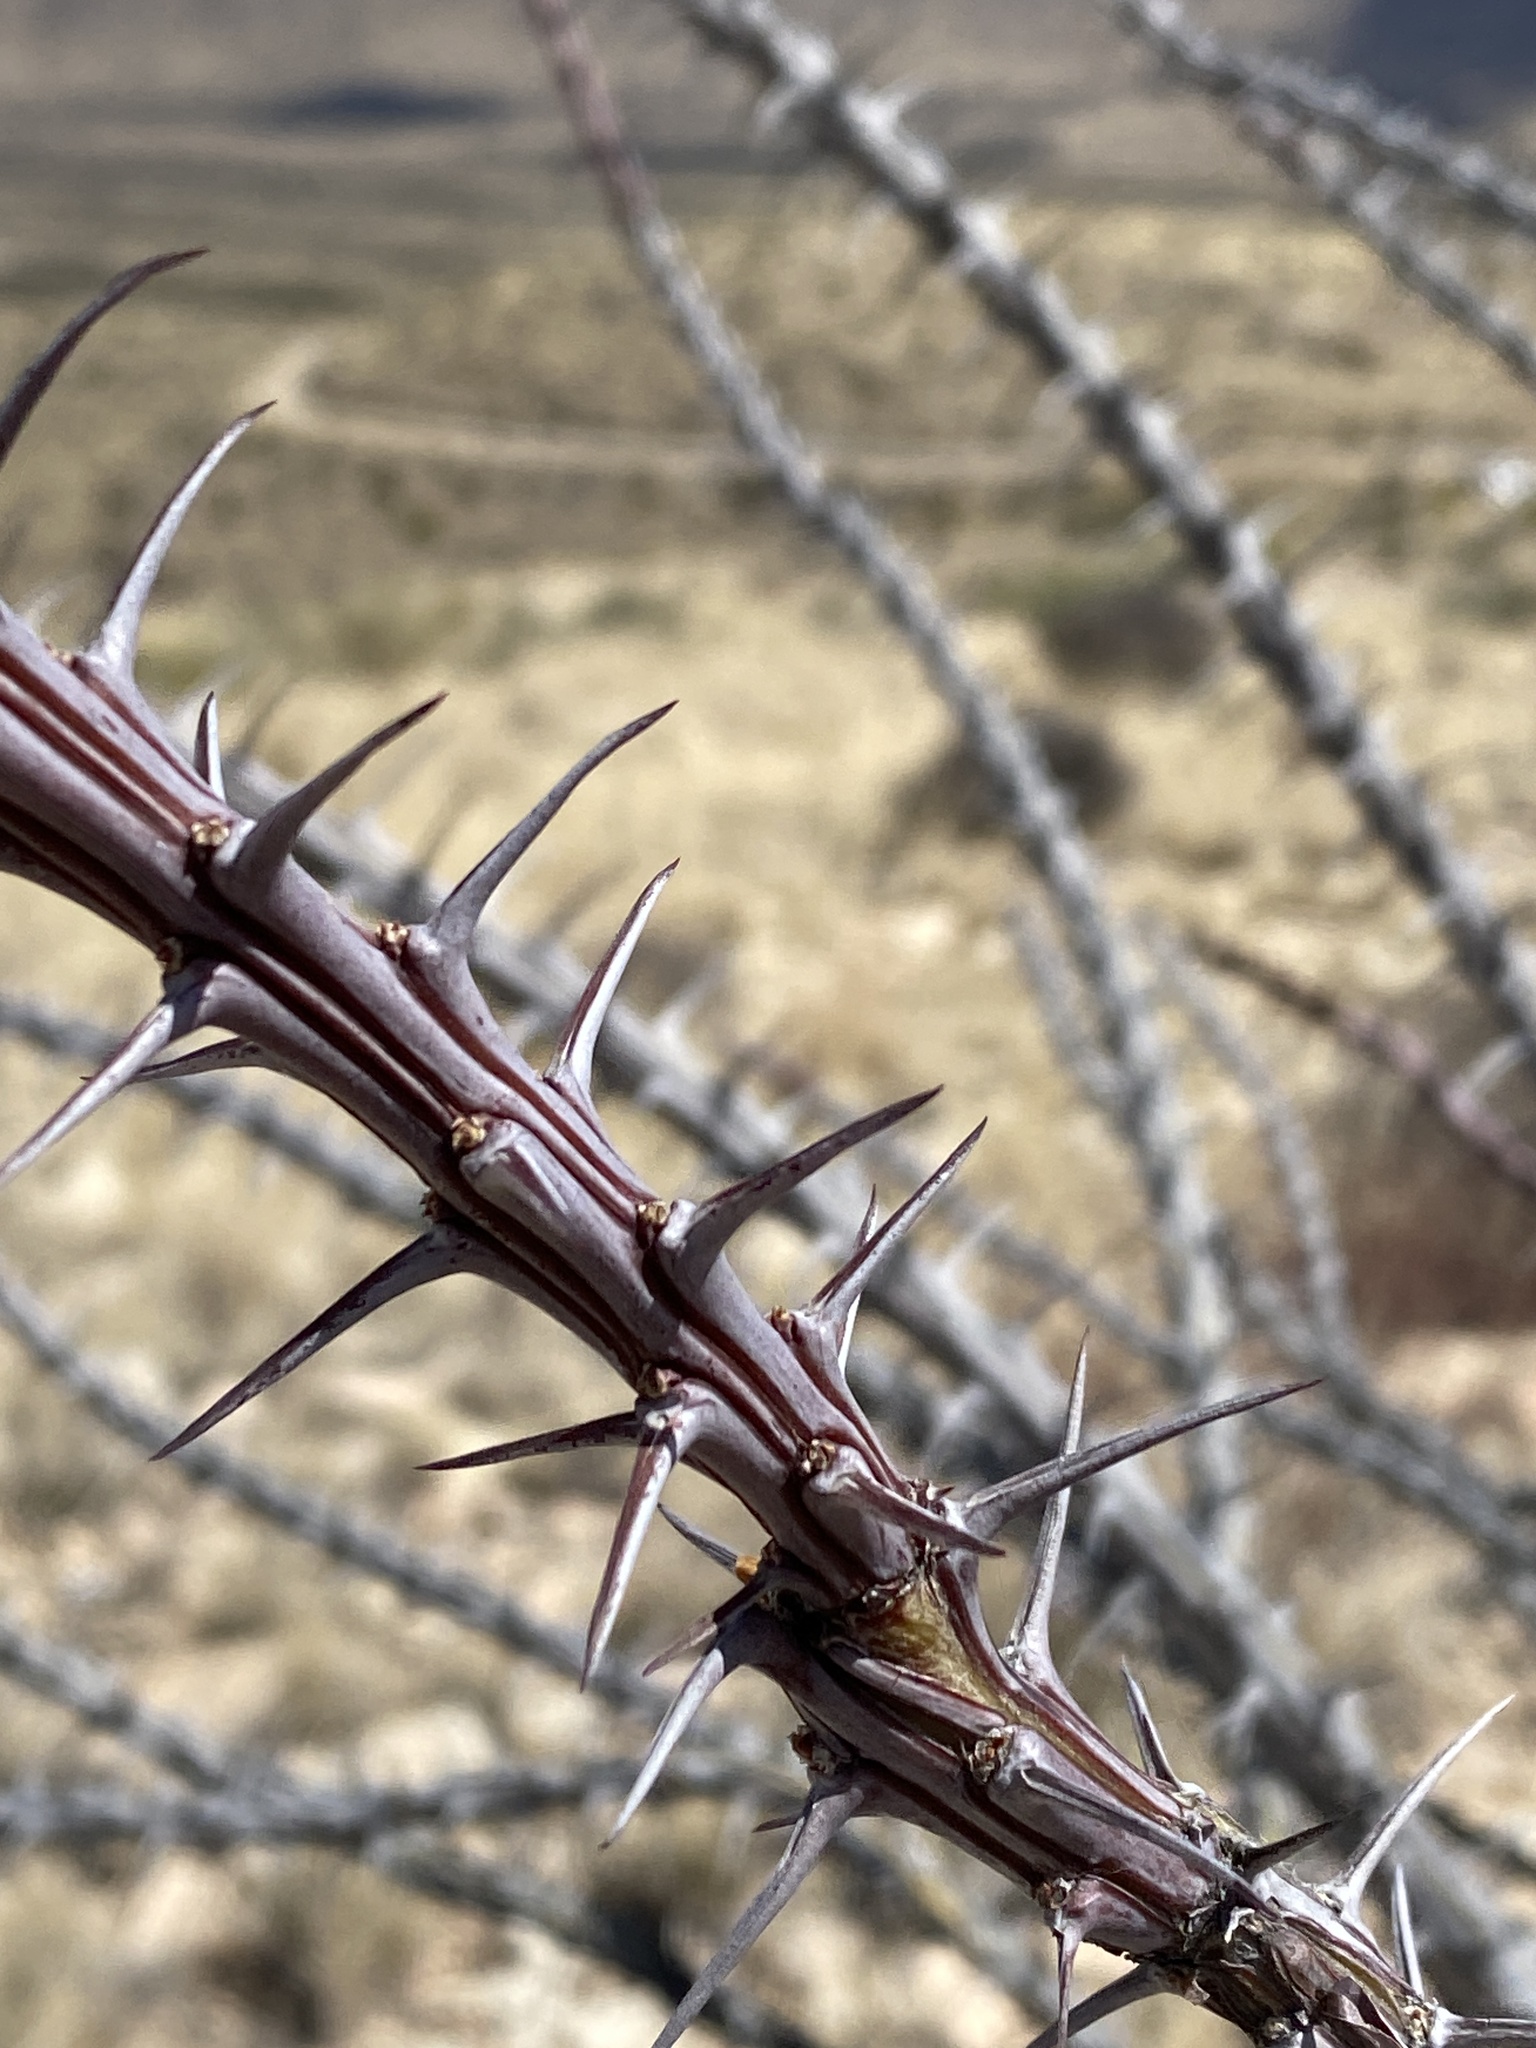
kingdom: Plantae
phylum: Tracheophyta
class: Magnoliopsida
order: Ericales
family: Fouquieriaceae
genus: Fouquieria
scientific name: Fouquieria splendens
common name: Vine-cactus
